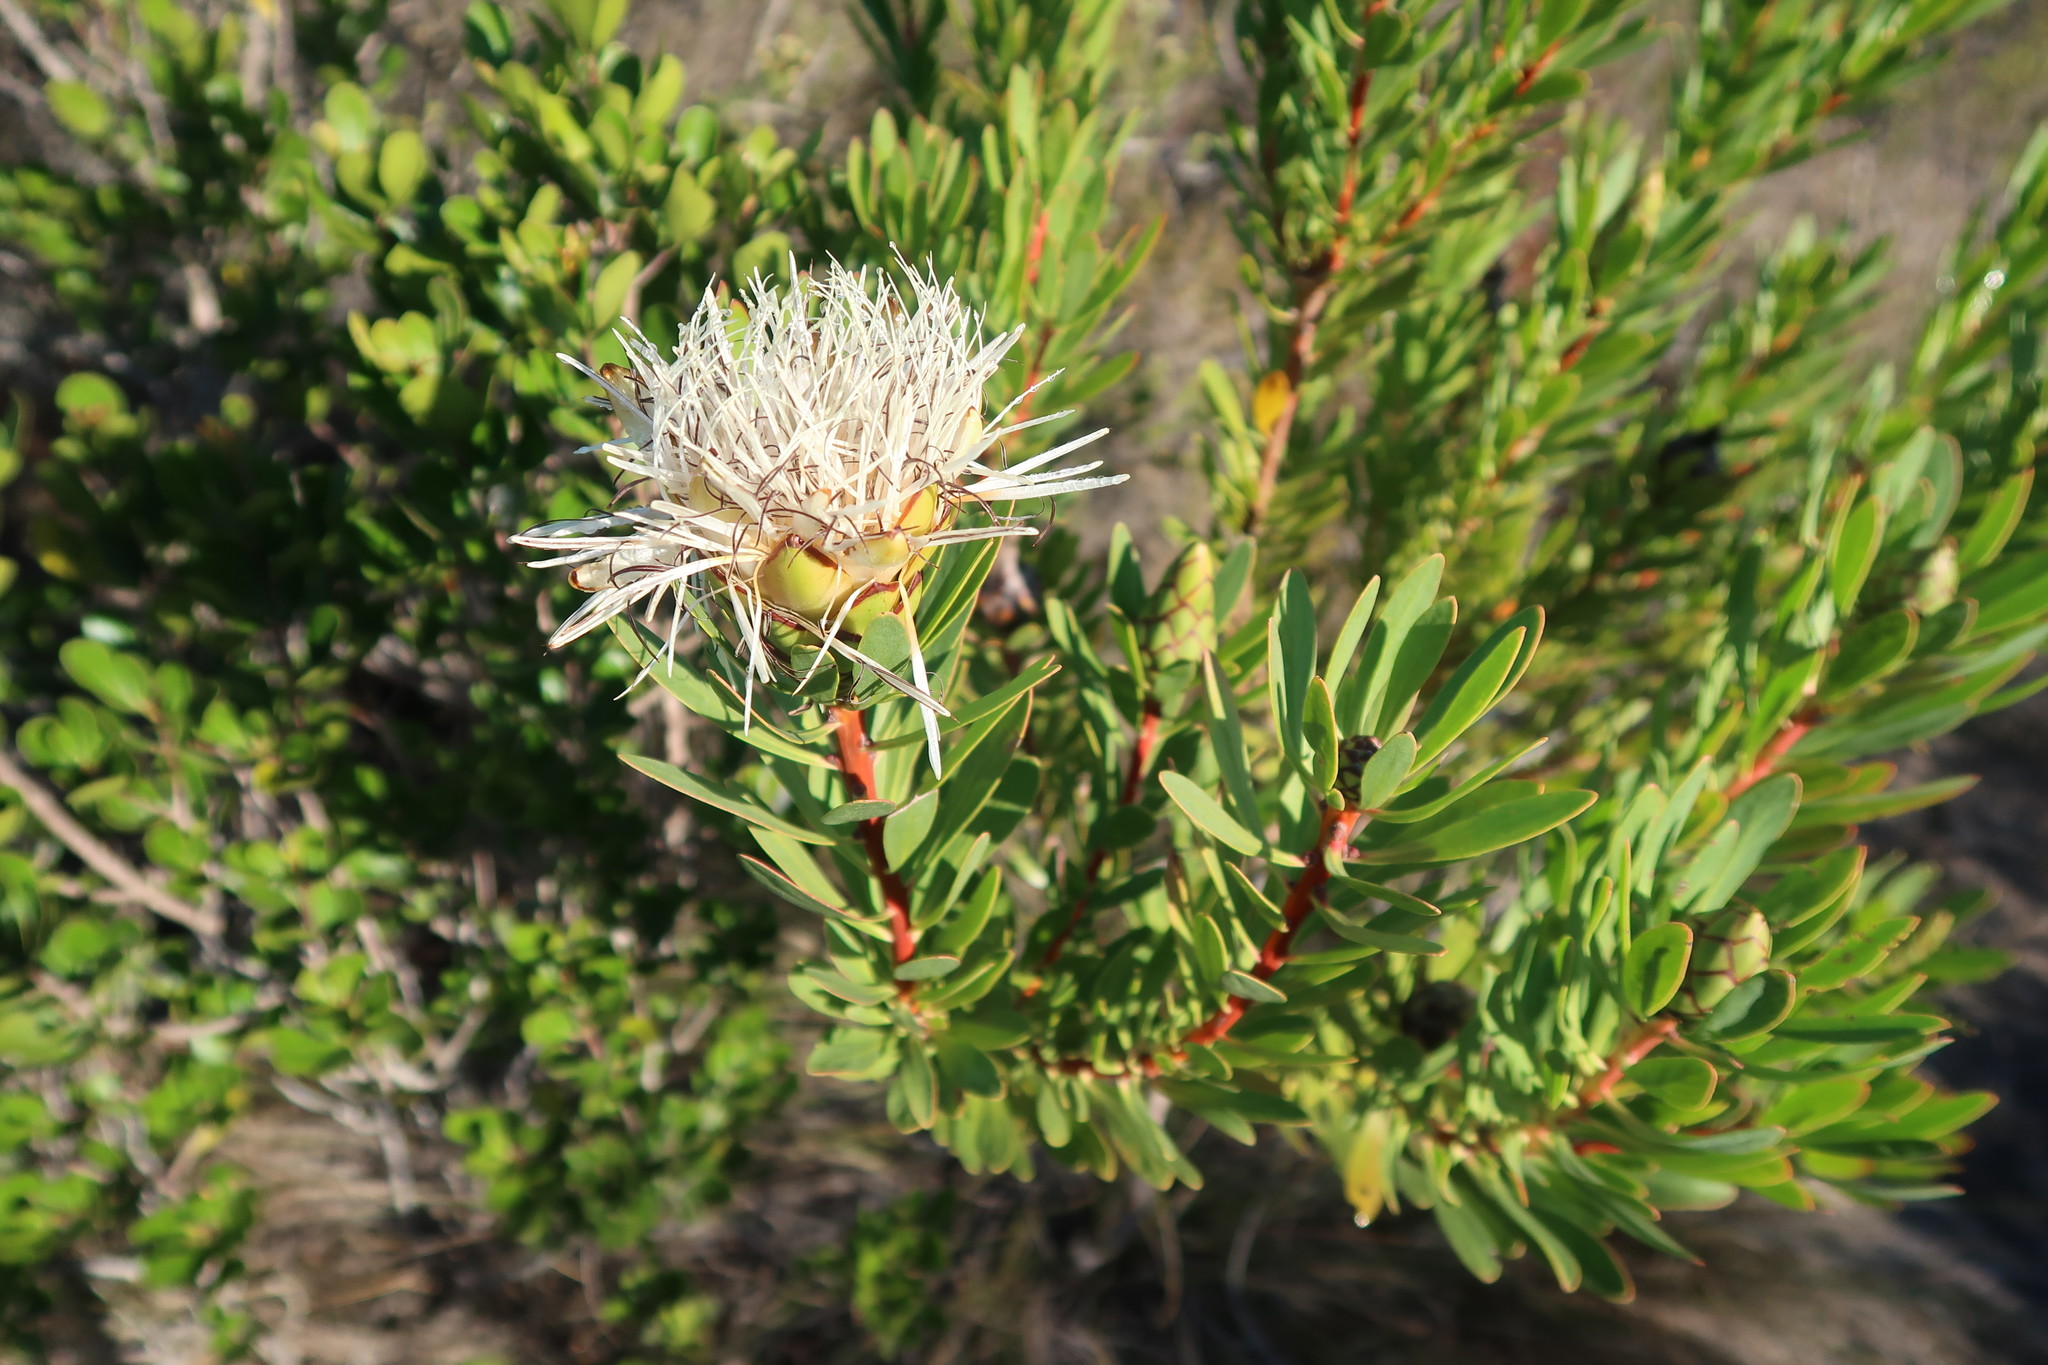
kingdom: Plantae
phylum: Tracheophyta
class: Magnoliopsida
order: Proteales
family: Proteaceae
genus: Protea
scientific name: Protea lanceolata
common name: Lance-leaved protea
